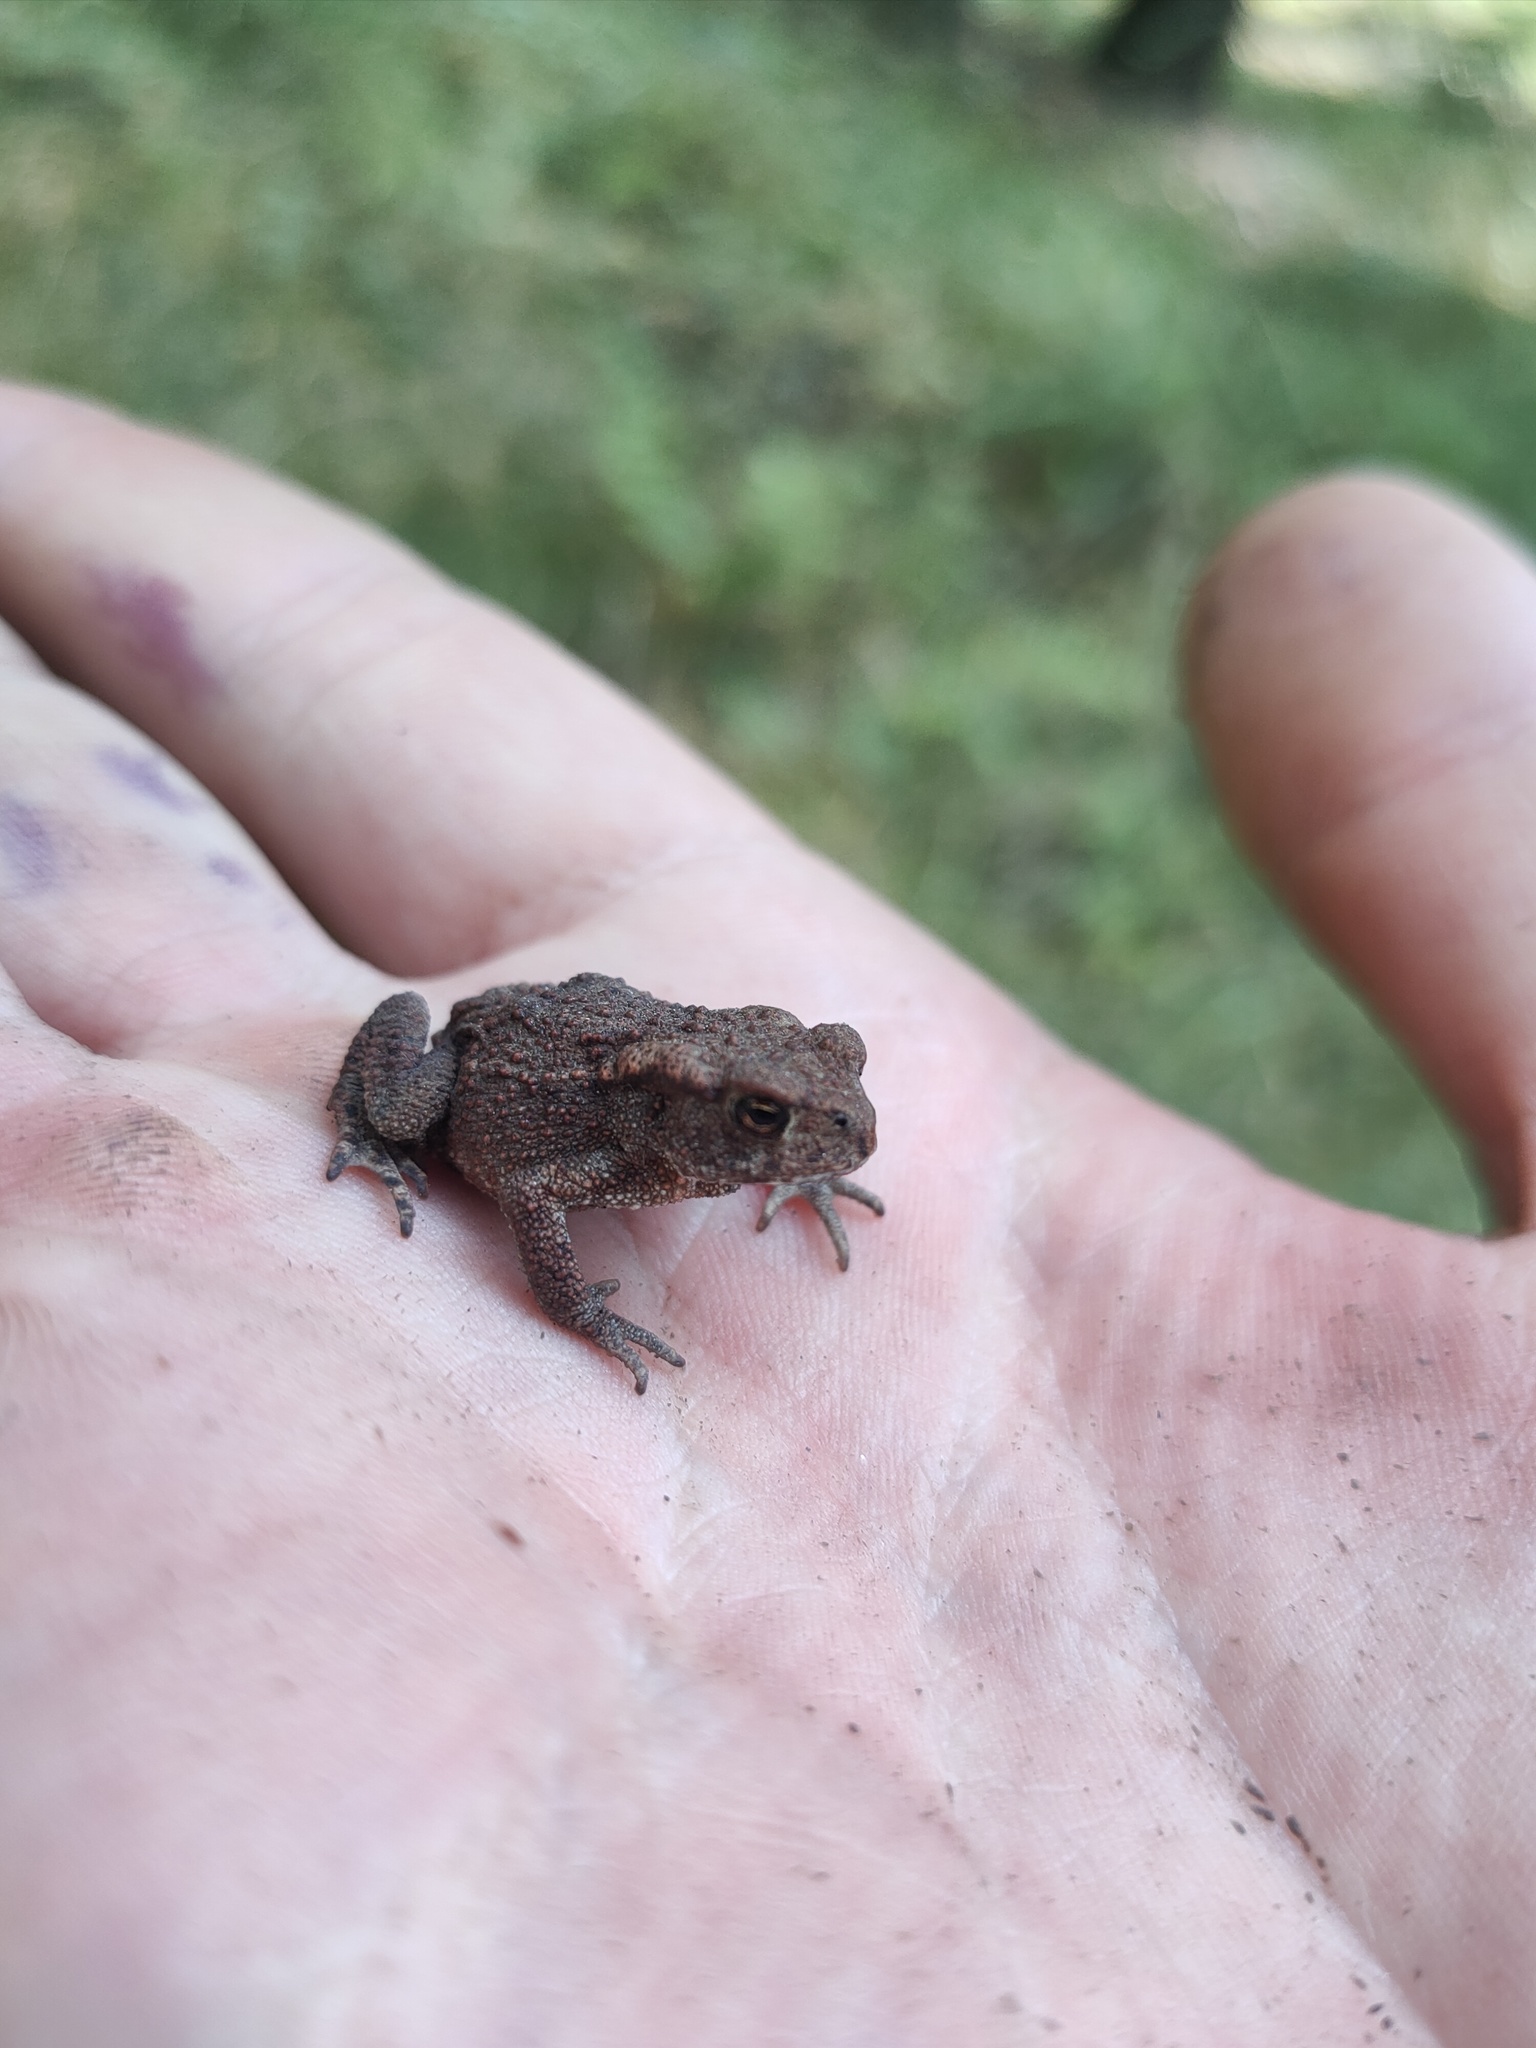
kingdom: Animalia
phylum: Chordata
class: Amphibia
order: Anura
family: Bufonidae
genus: Bufo
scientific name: Bufo bufo
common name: Common toad
